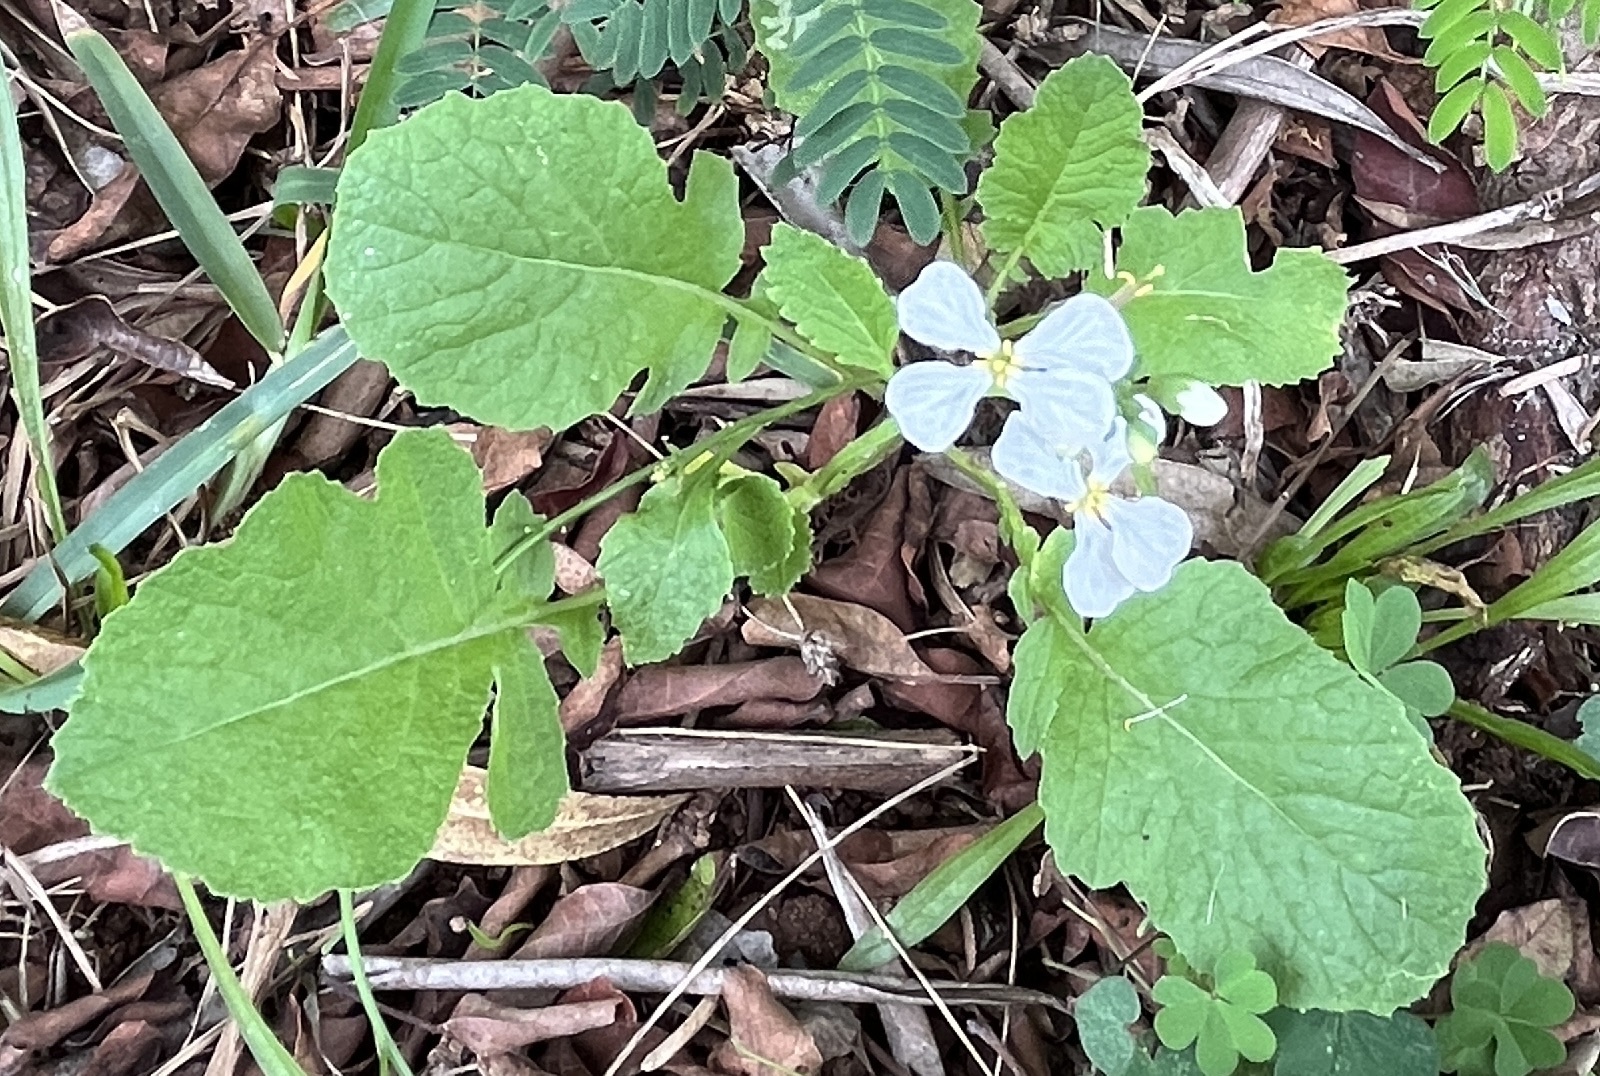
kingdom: Plantae
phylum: Tracheophyta
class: Magnoliopsida
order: Brassicales
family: Brassicaceae
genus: Raphanus
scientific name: Raphanus raphanistrum
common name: Wild radish
